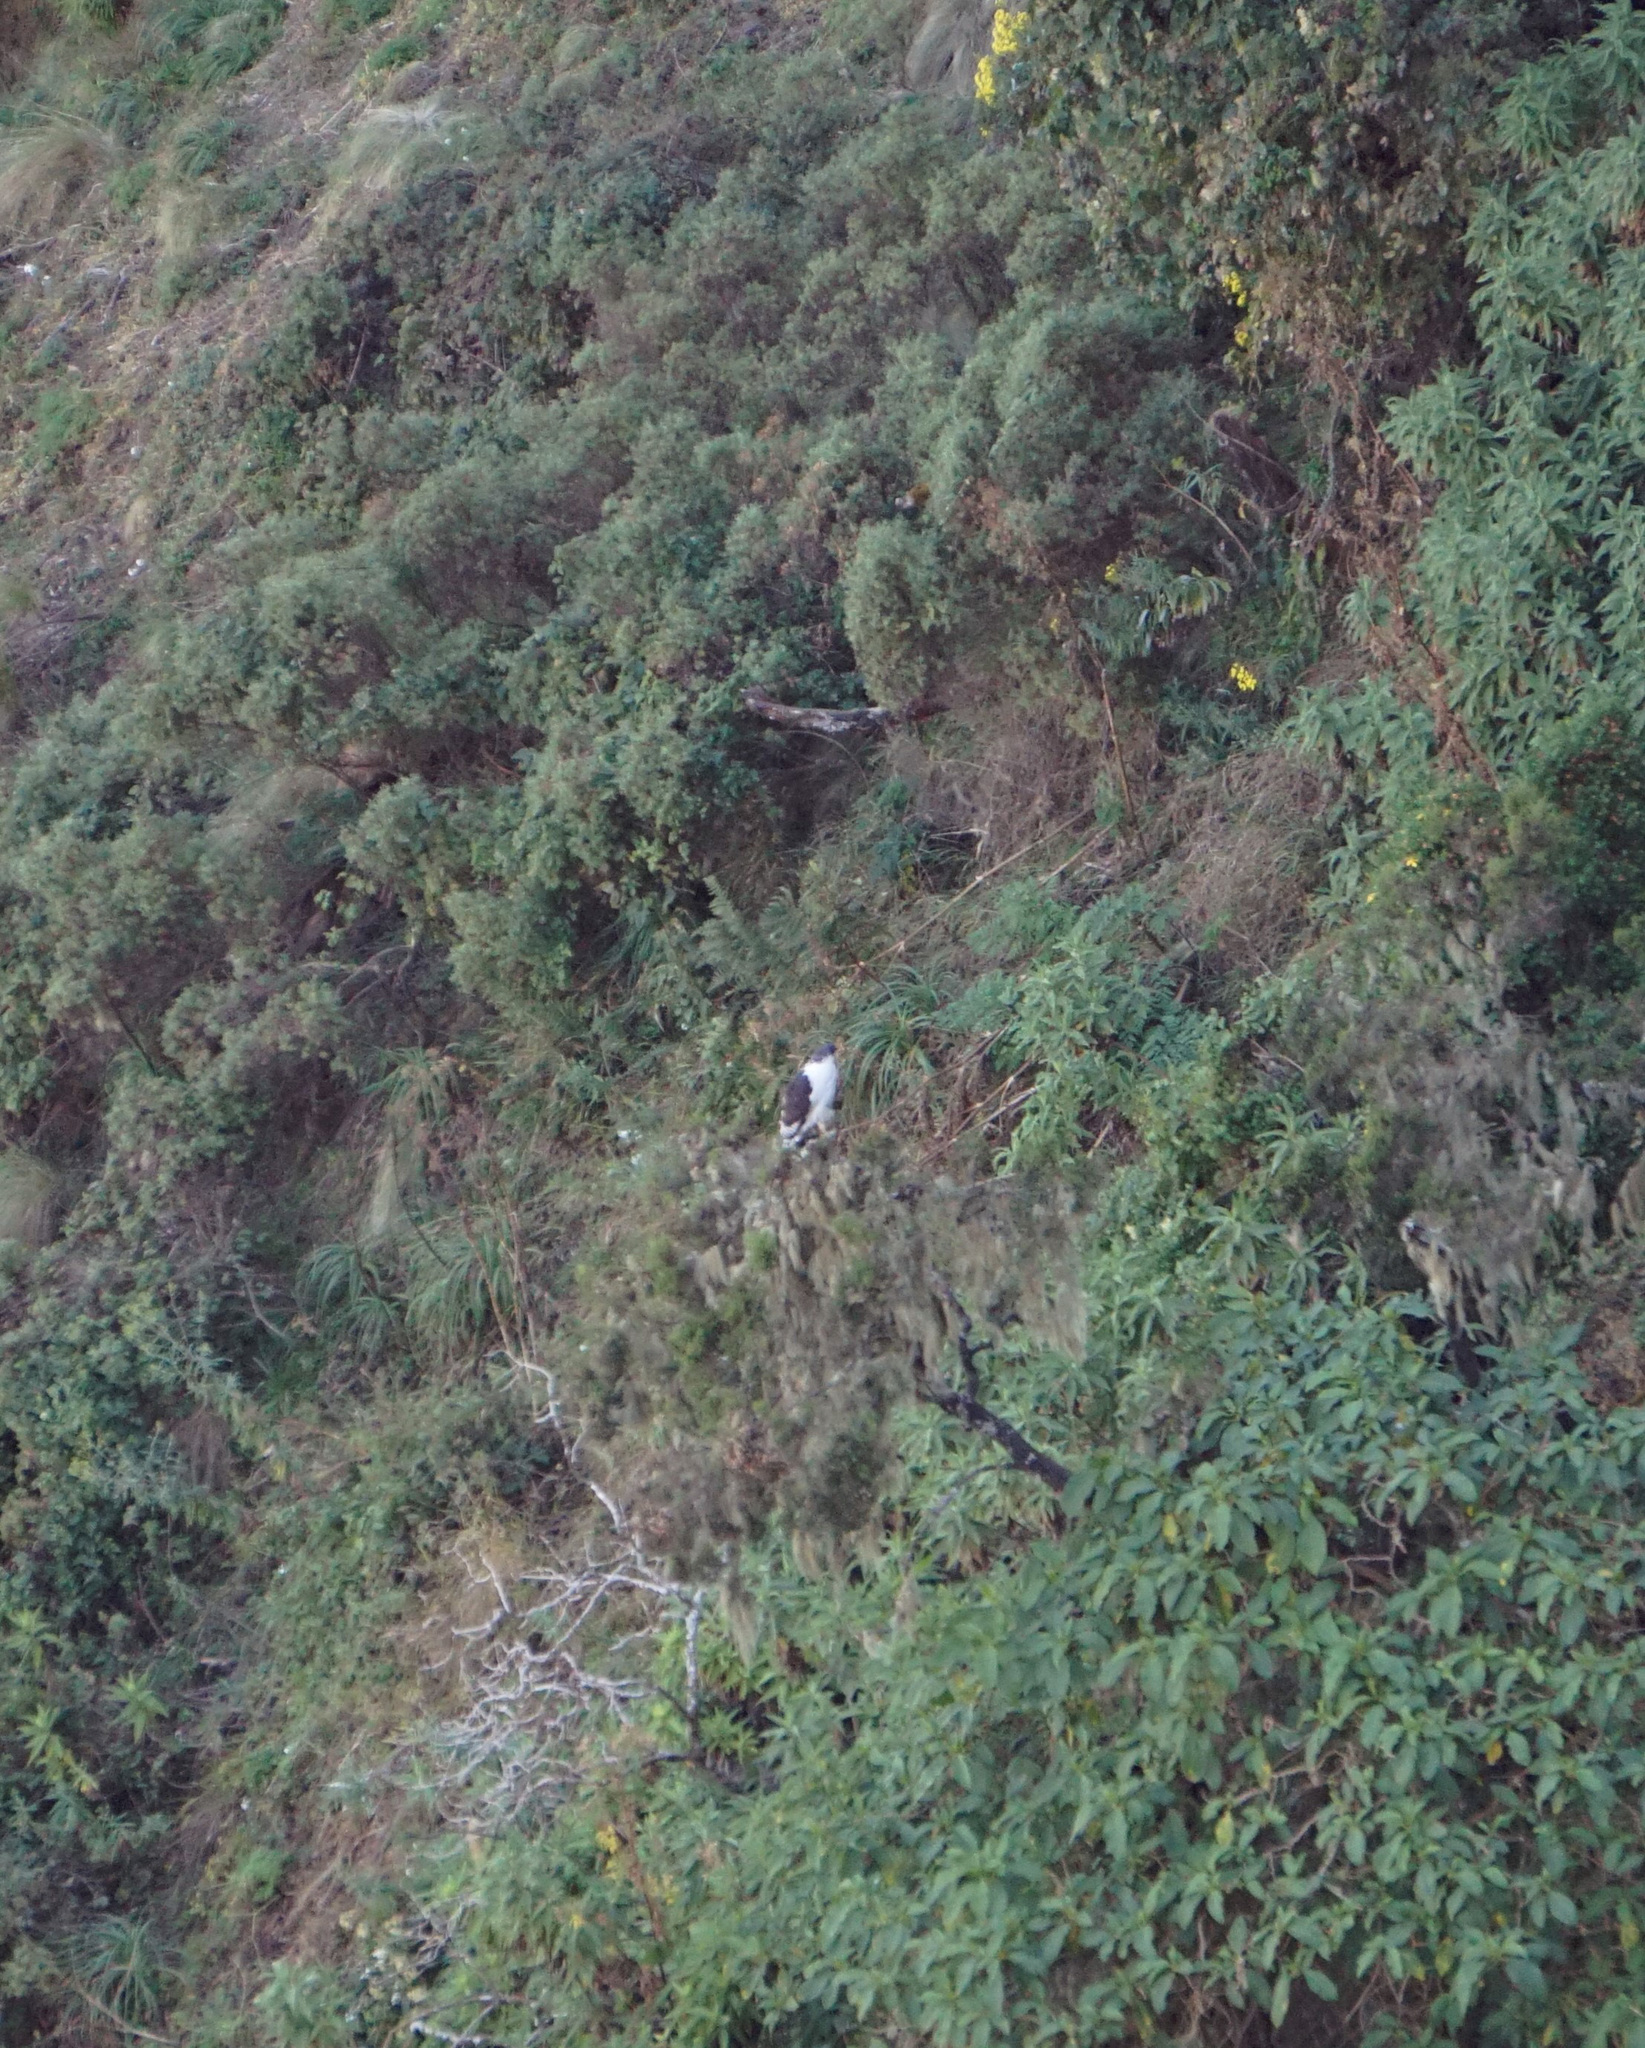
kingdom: Animalia
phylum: Chordata
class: Aves
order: Accipitriformes
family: Accipitridae
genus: Buteo
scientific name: Buteo augur
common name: Augur buzzard
